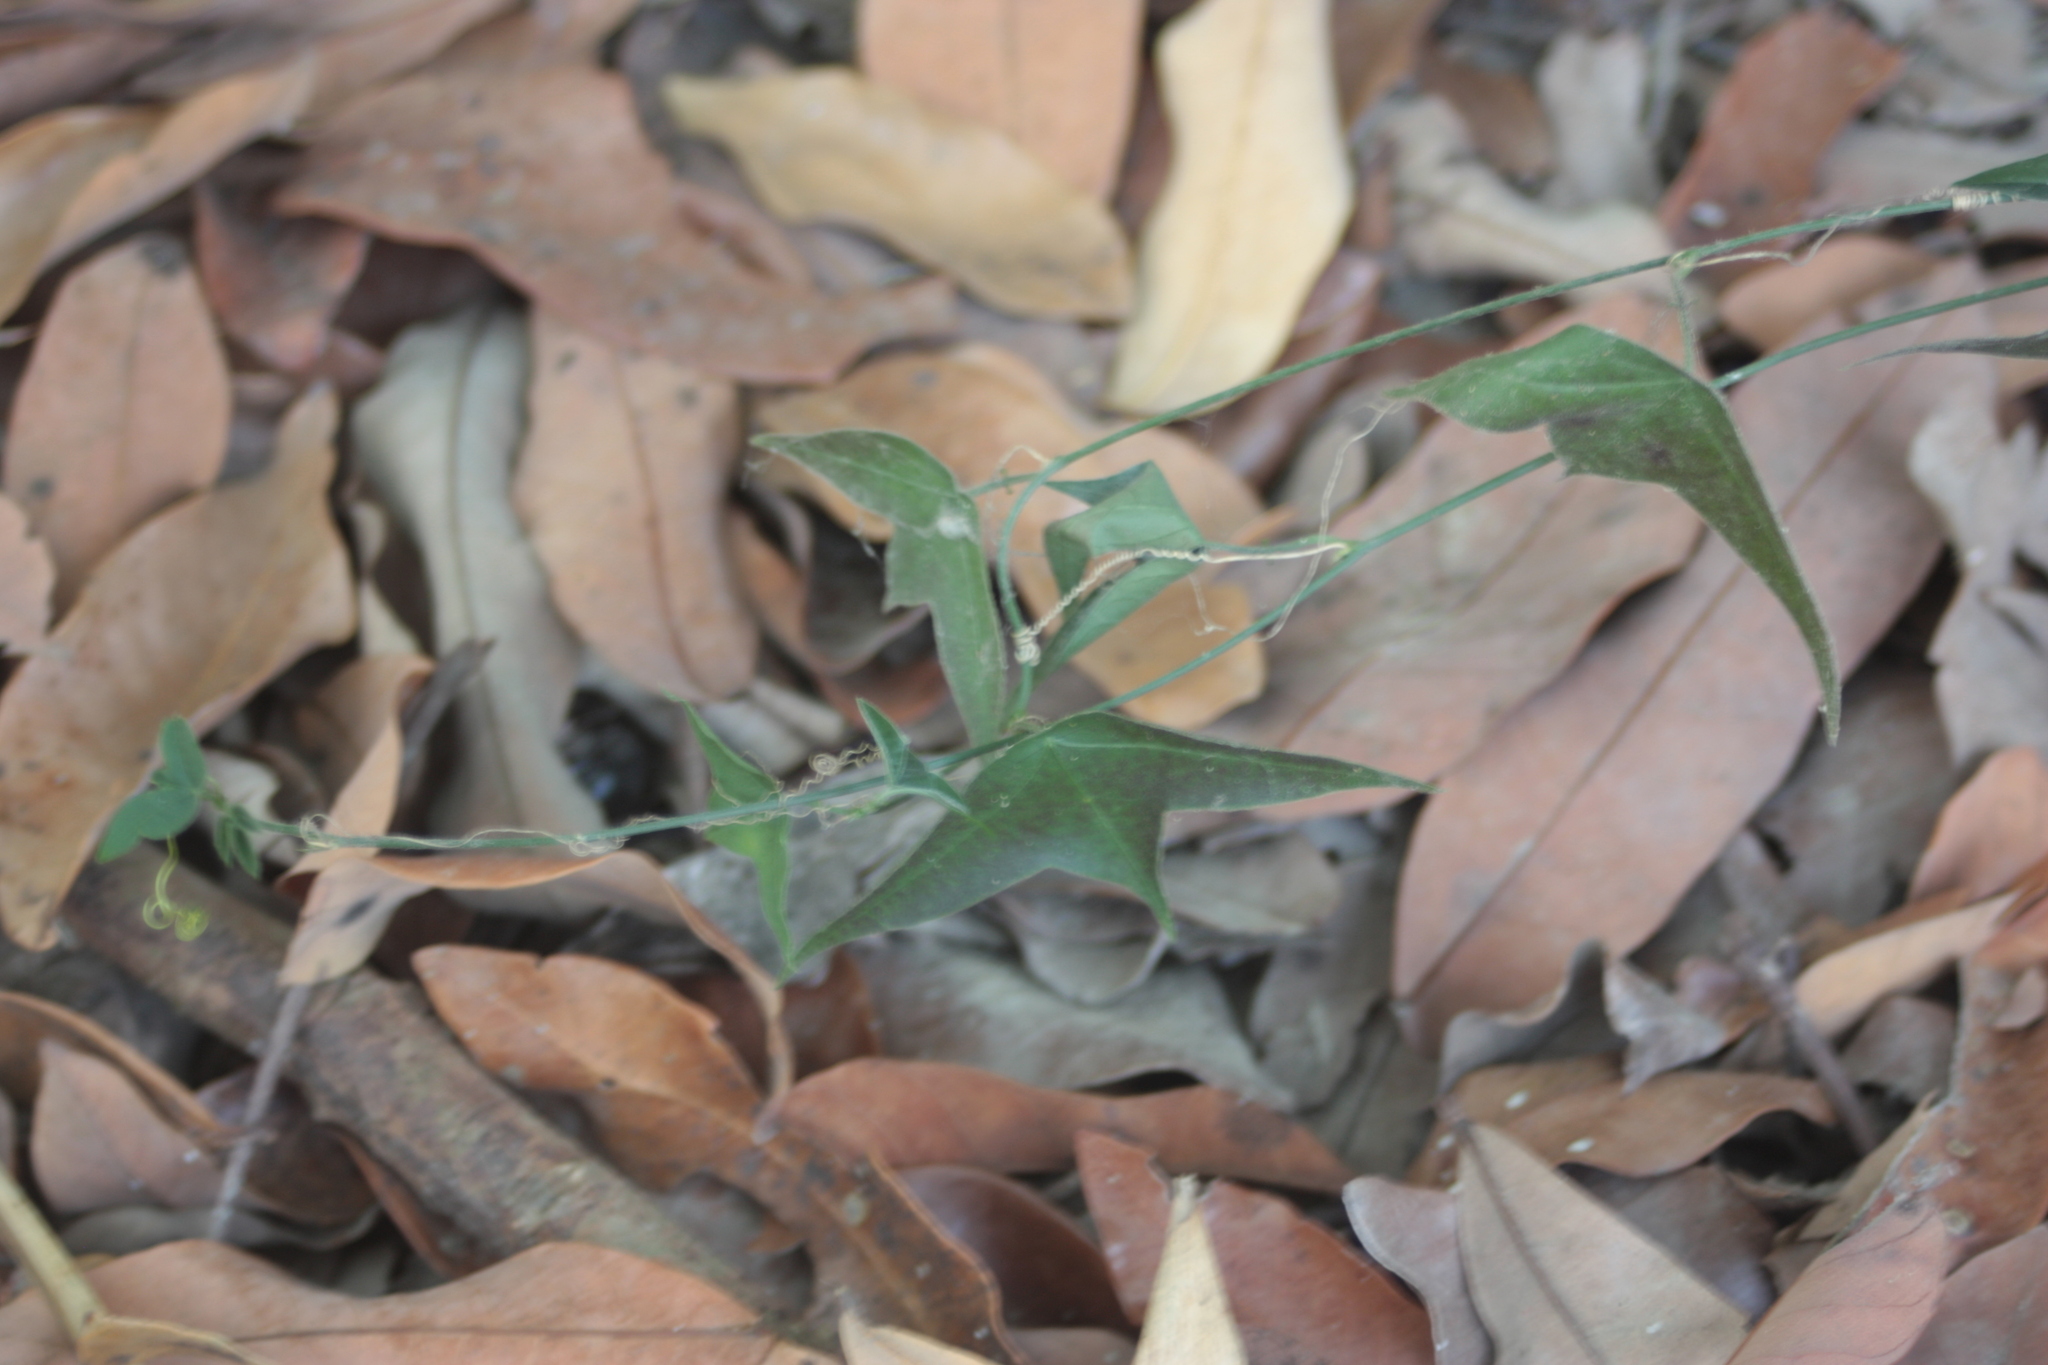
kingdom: Plantae
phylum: Tracheophyta
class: Magnoliopsida
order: Malpighiales
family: Passifloraceae
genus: Passiflora
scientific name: Passiflora suberosa
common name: Wild passionfruit
